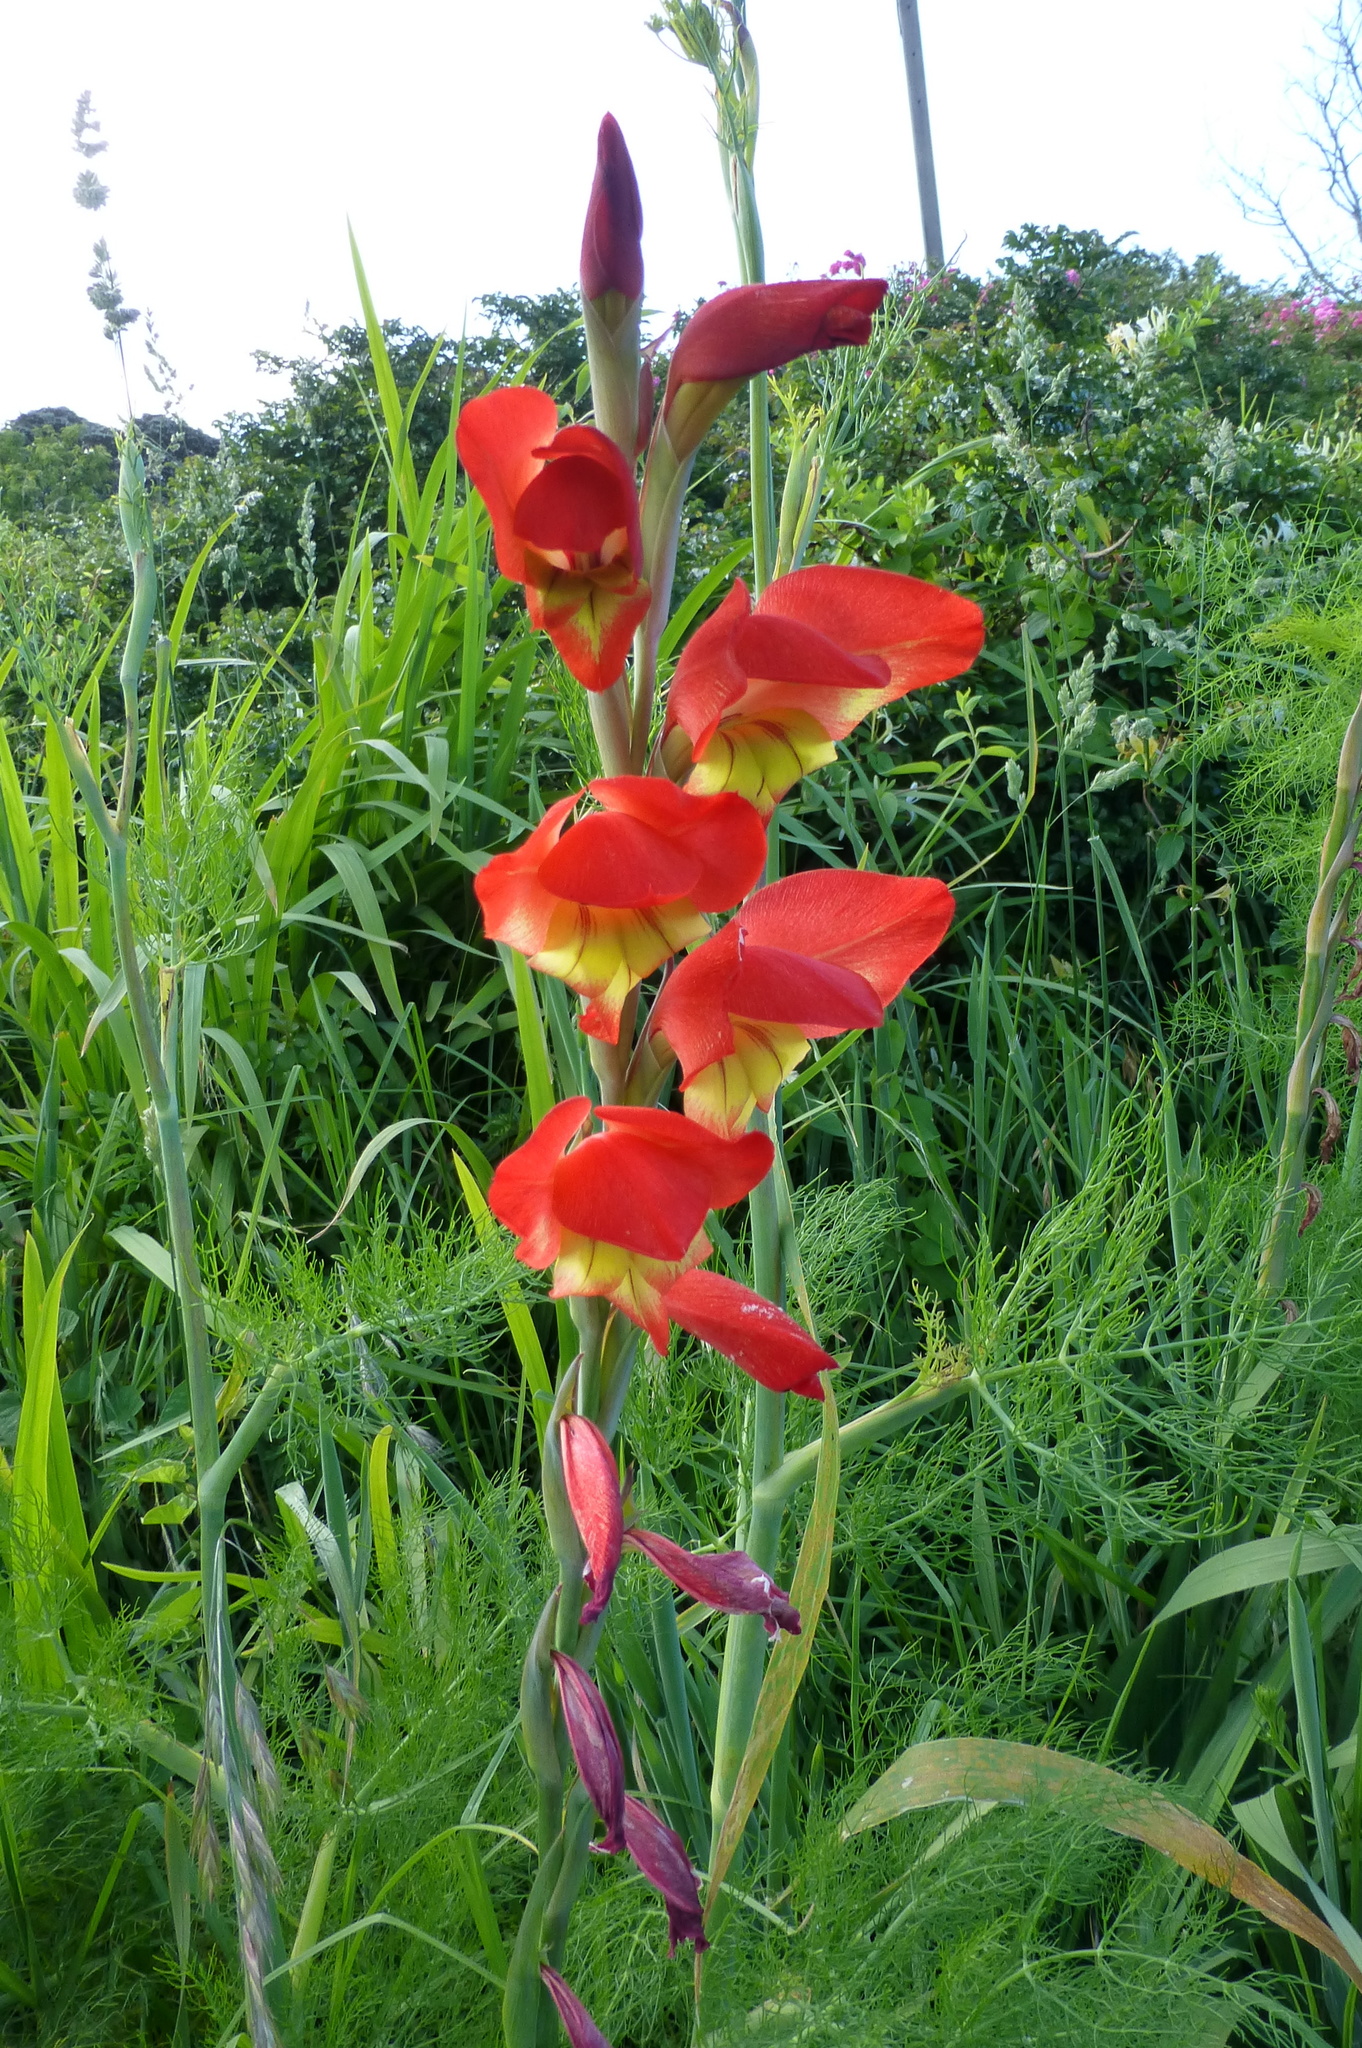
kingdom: Plantae
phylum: Tracheophyta
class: Liliopsida
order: Asparagales
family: Iridaceae
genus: Gladiolus
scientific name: Gladiolus dalenii
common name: Cornflag
